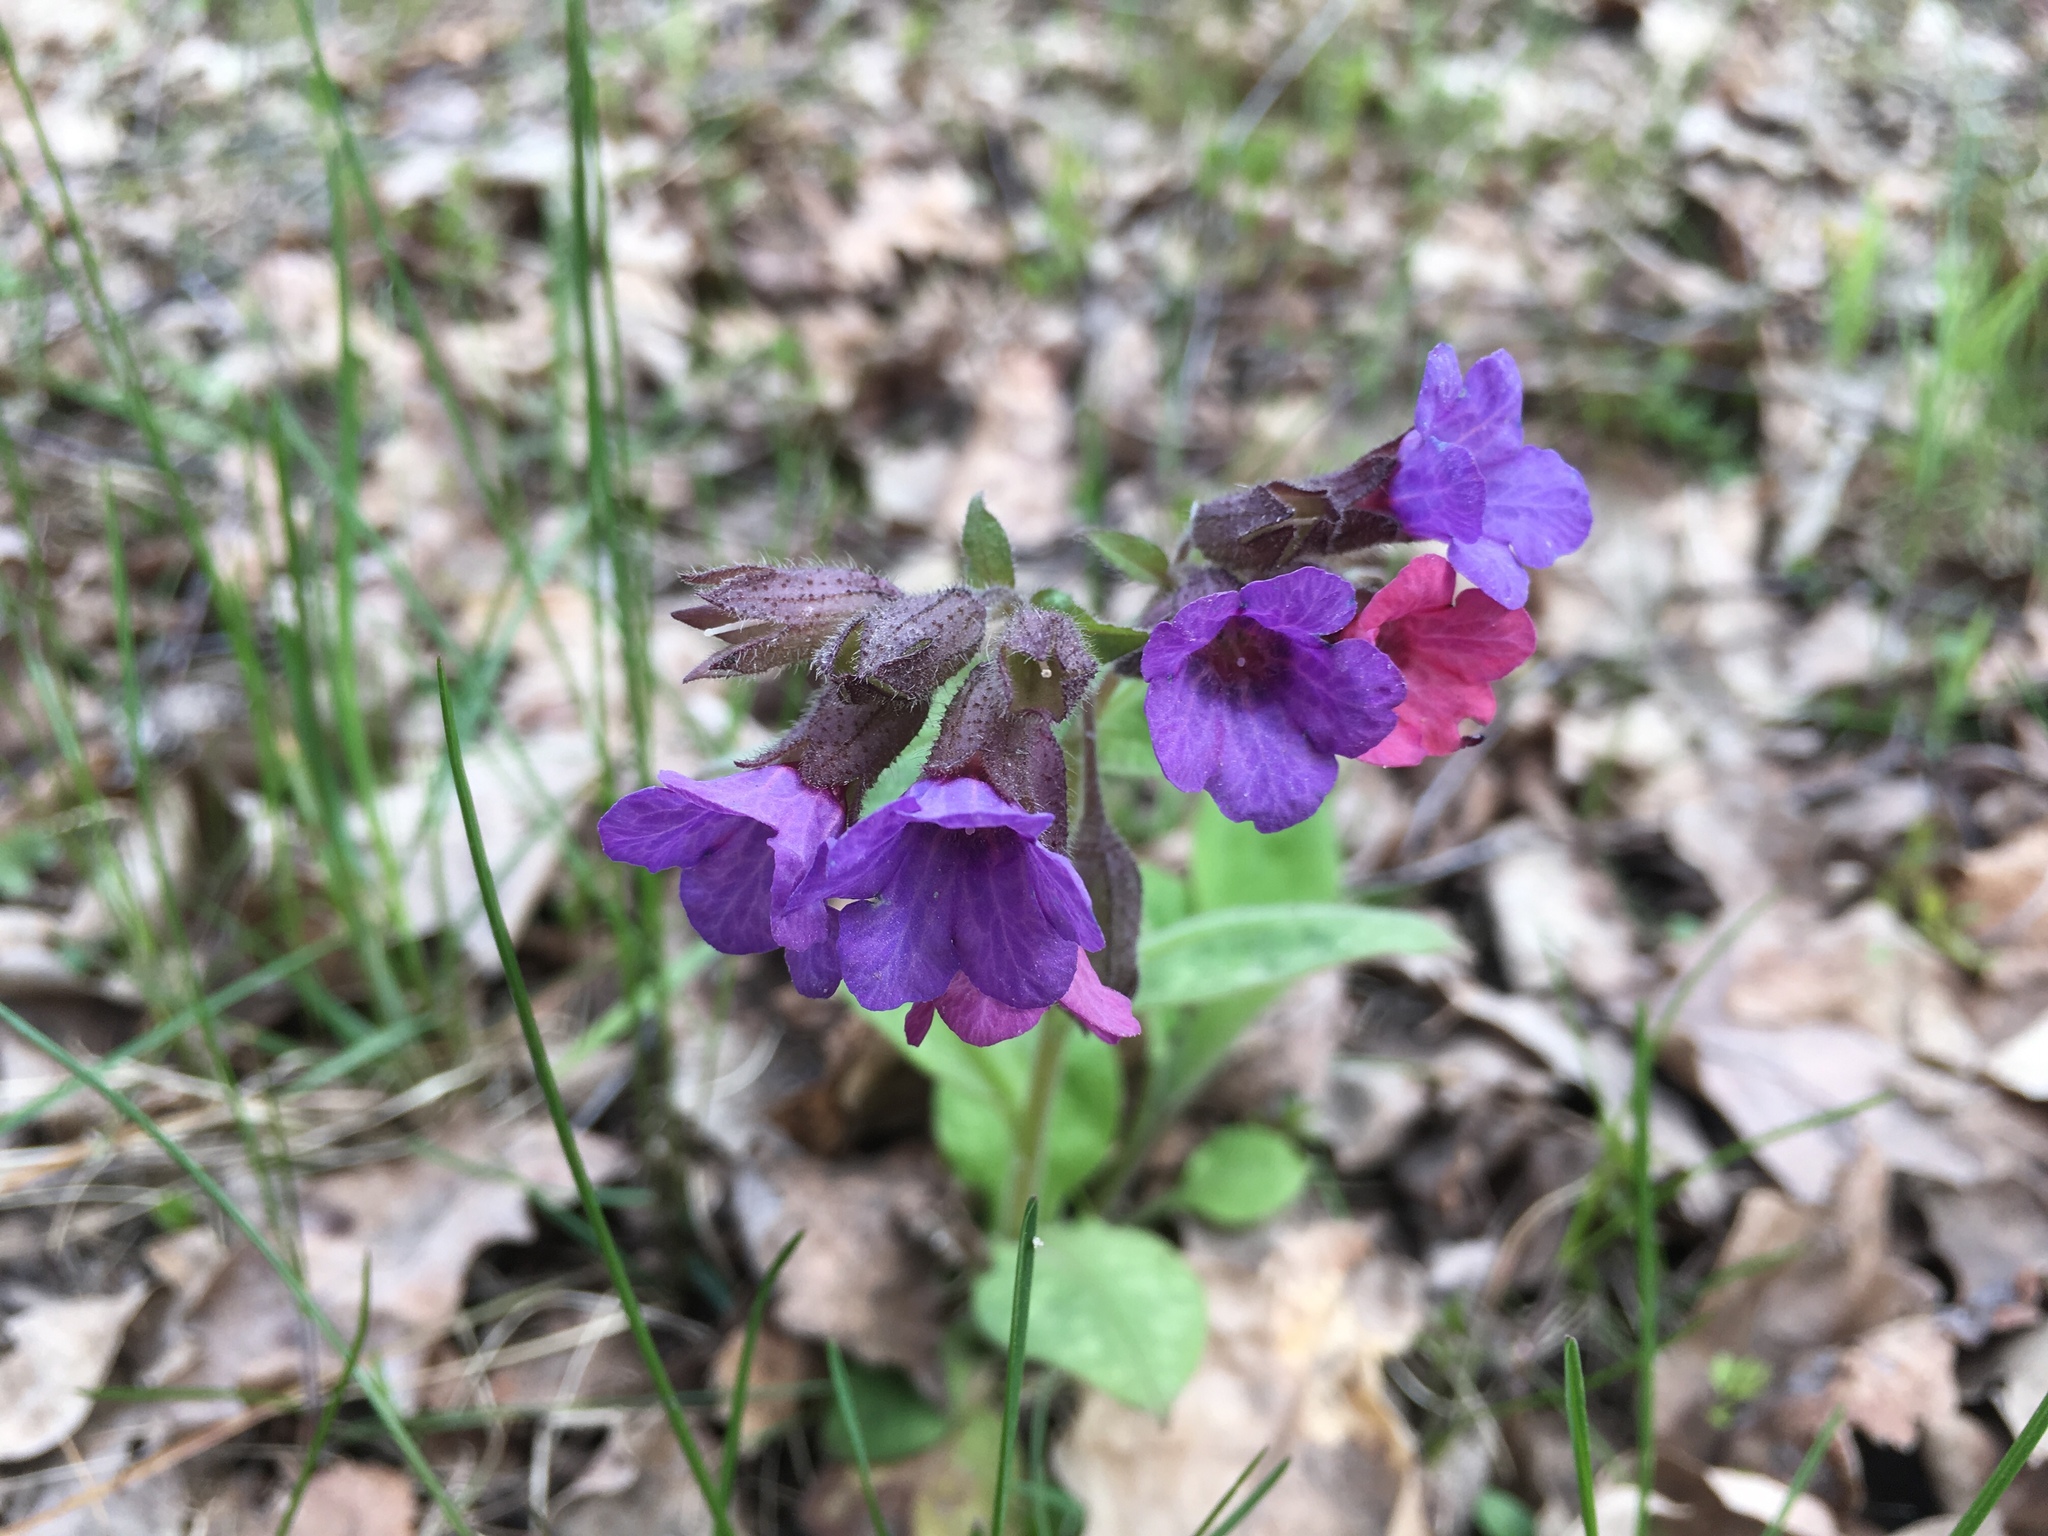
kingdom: Plantae
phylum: Tracheophyta
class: Magnoliopsida
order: Boraginales
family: Boraginaceae
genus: Pulmonaria
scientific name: Pulmonaria obscura
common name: Suffolk lungwort
